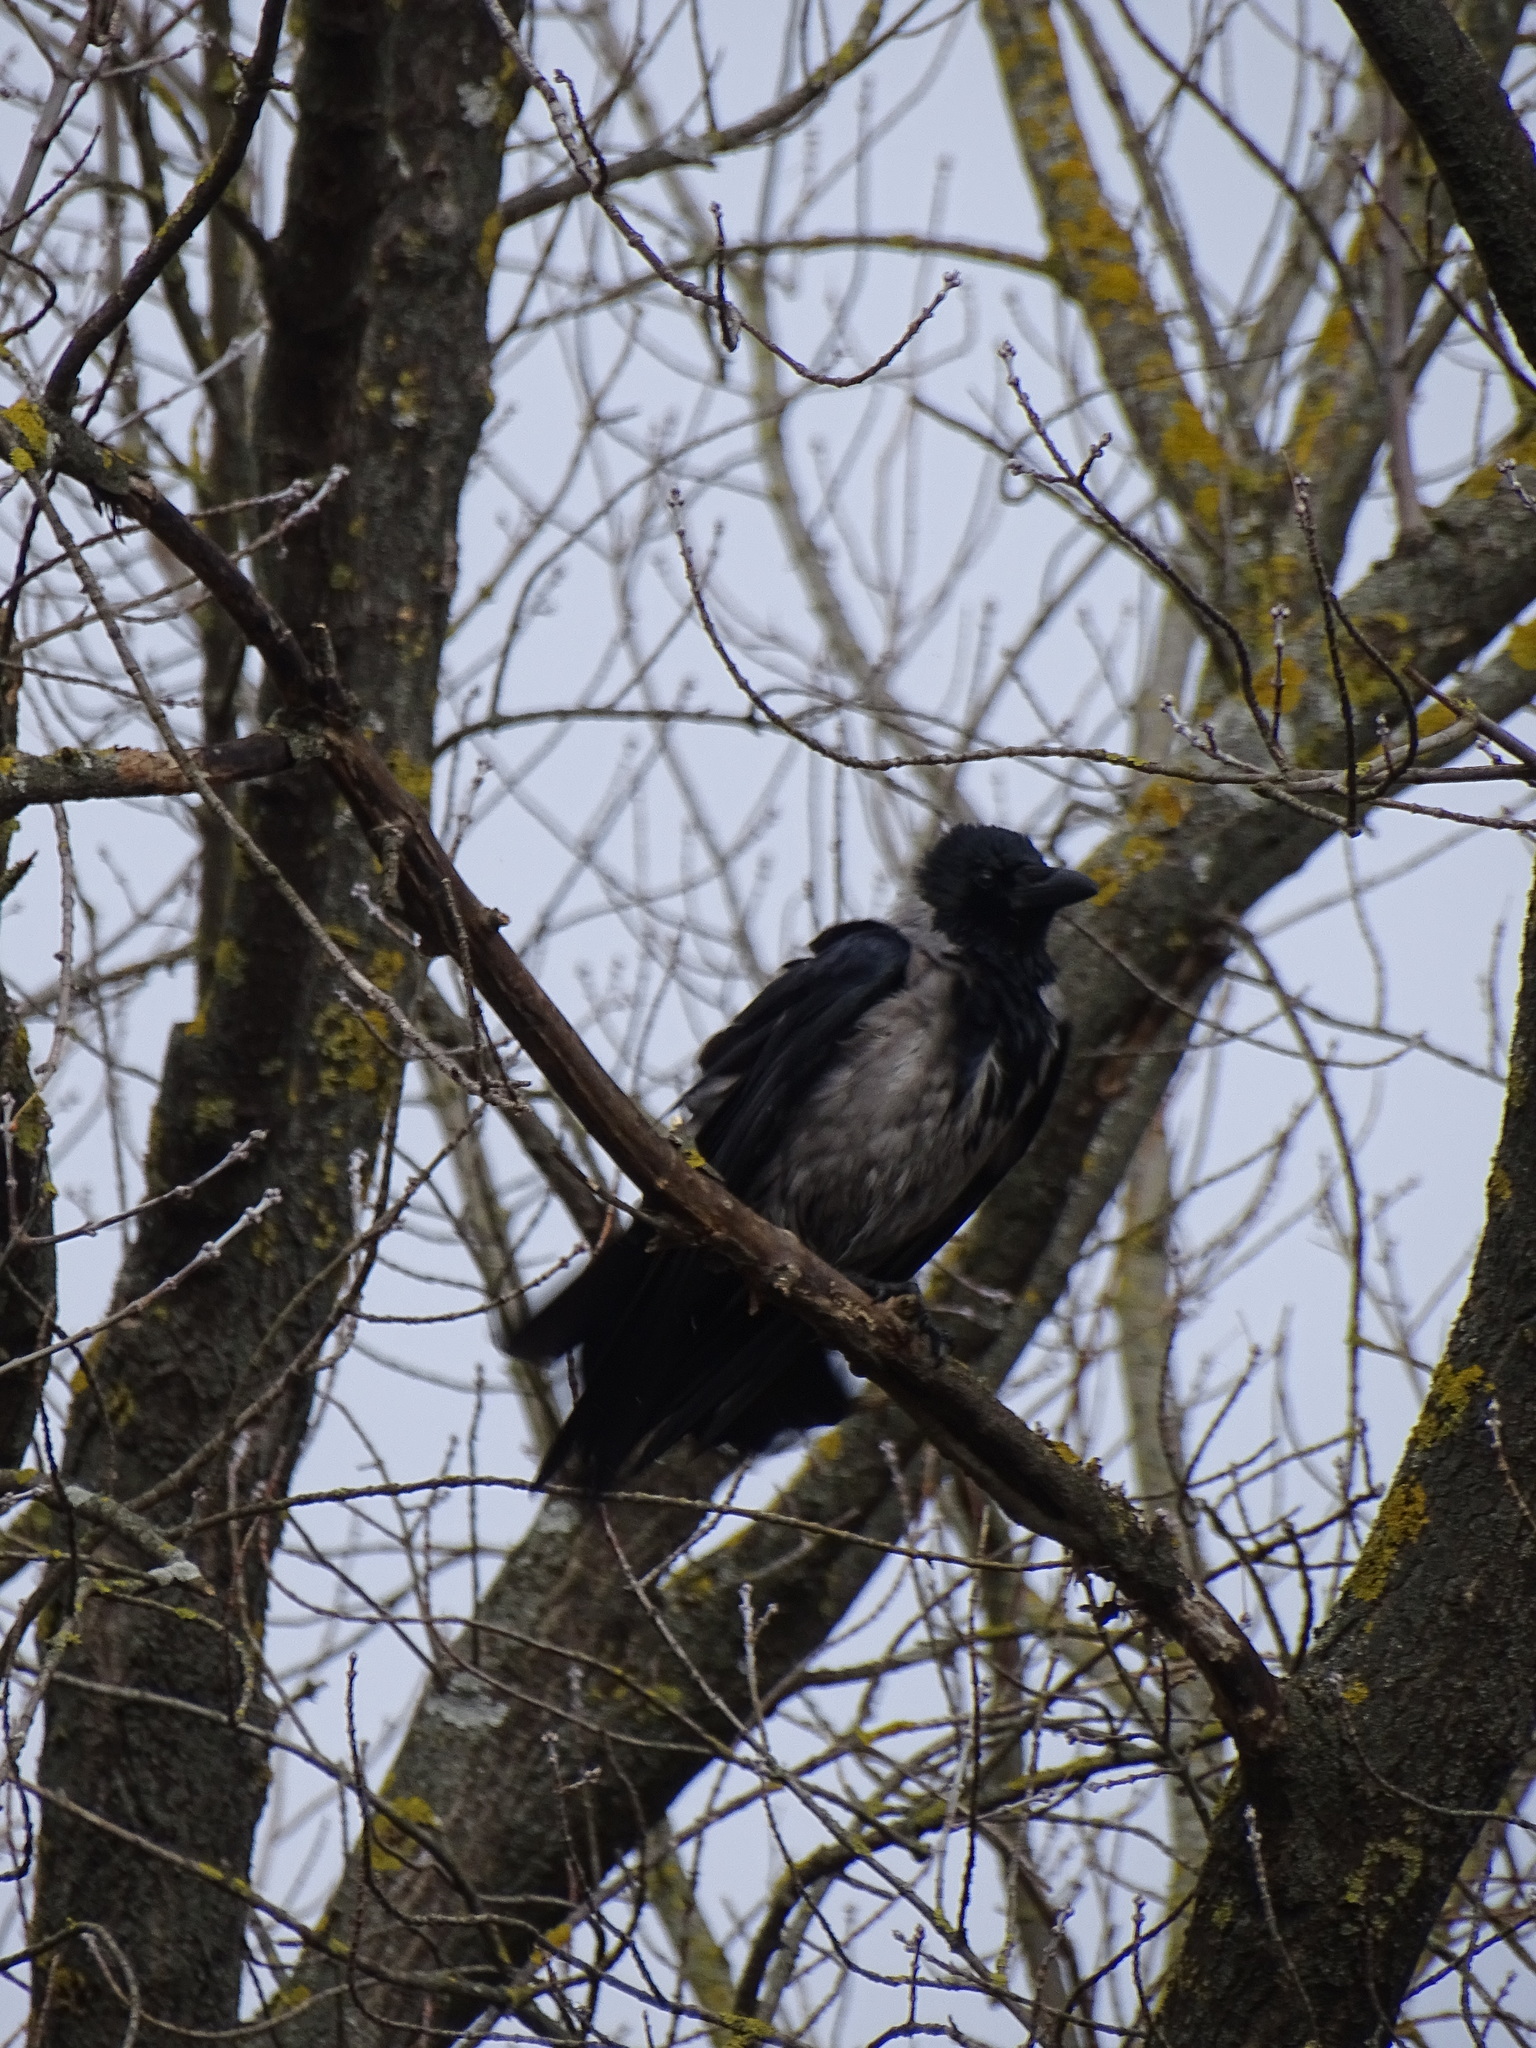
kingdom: Animalia
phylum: Chordata
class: Aves
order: Passeriformes
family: Corvidae
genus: Corvus
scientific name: Corvus
